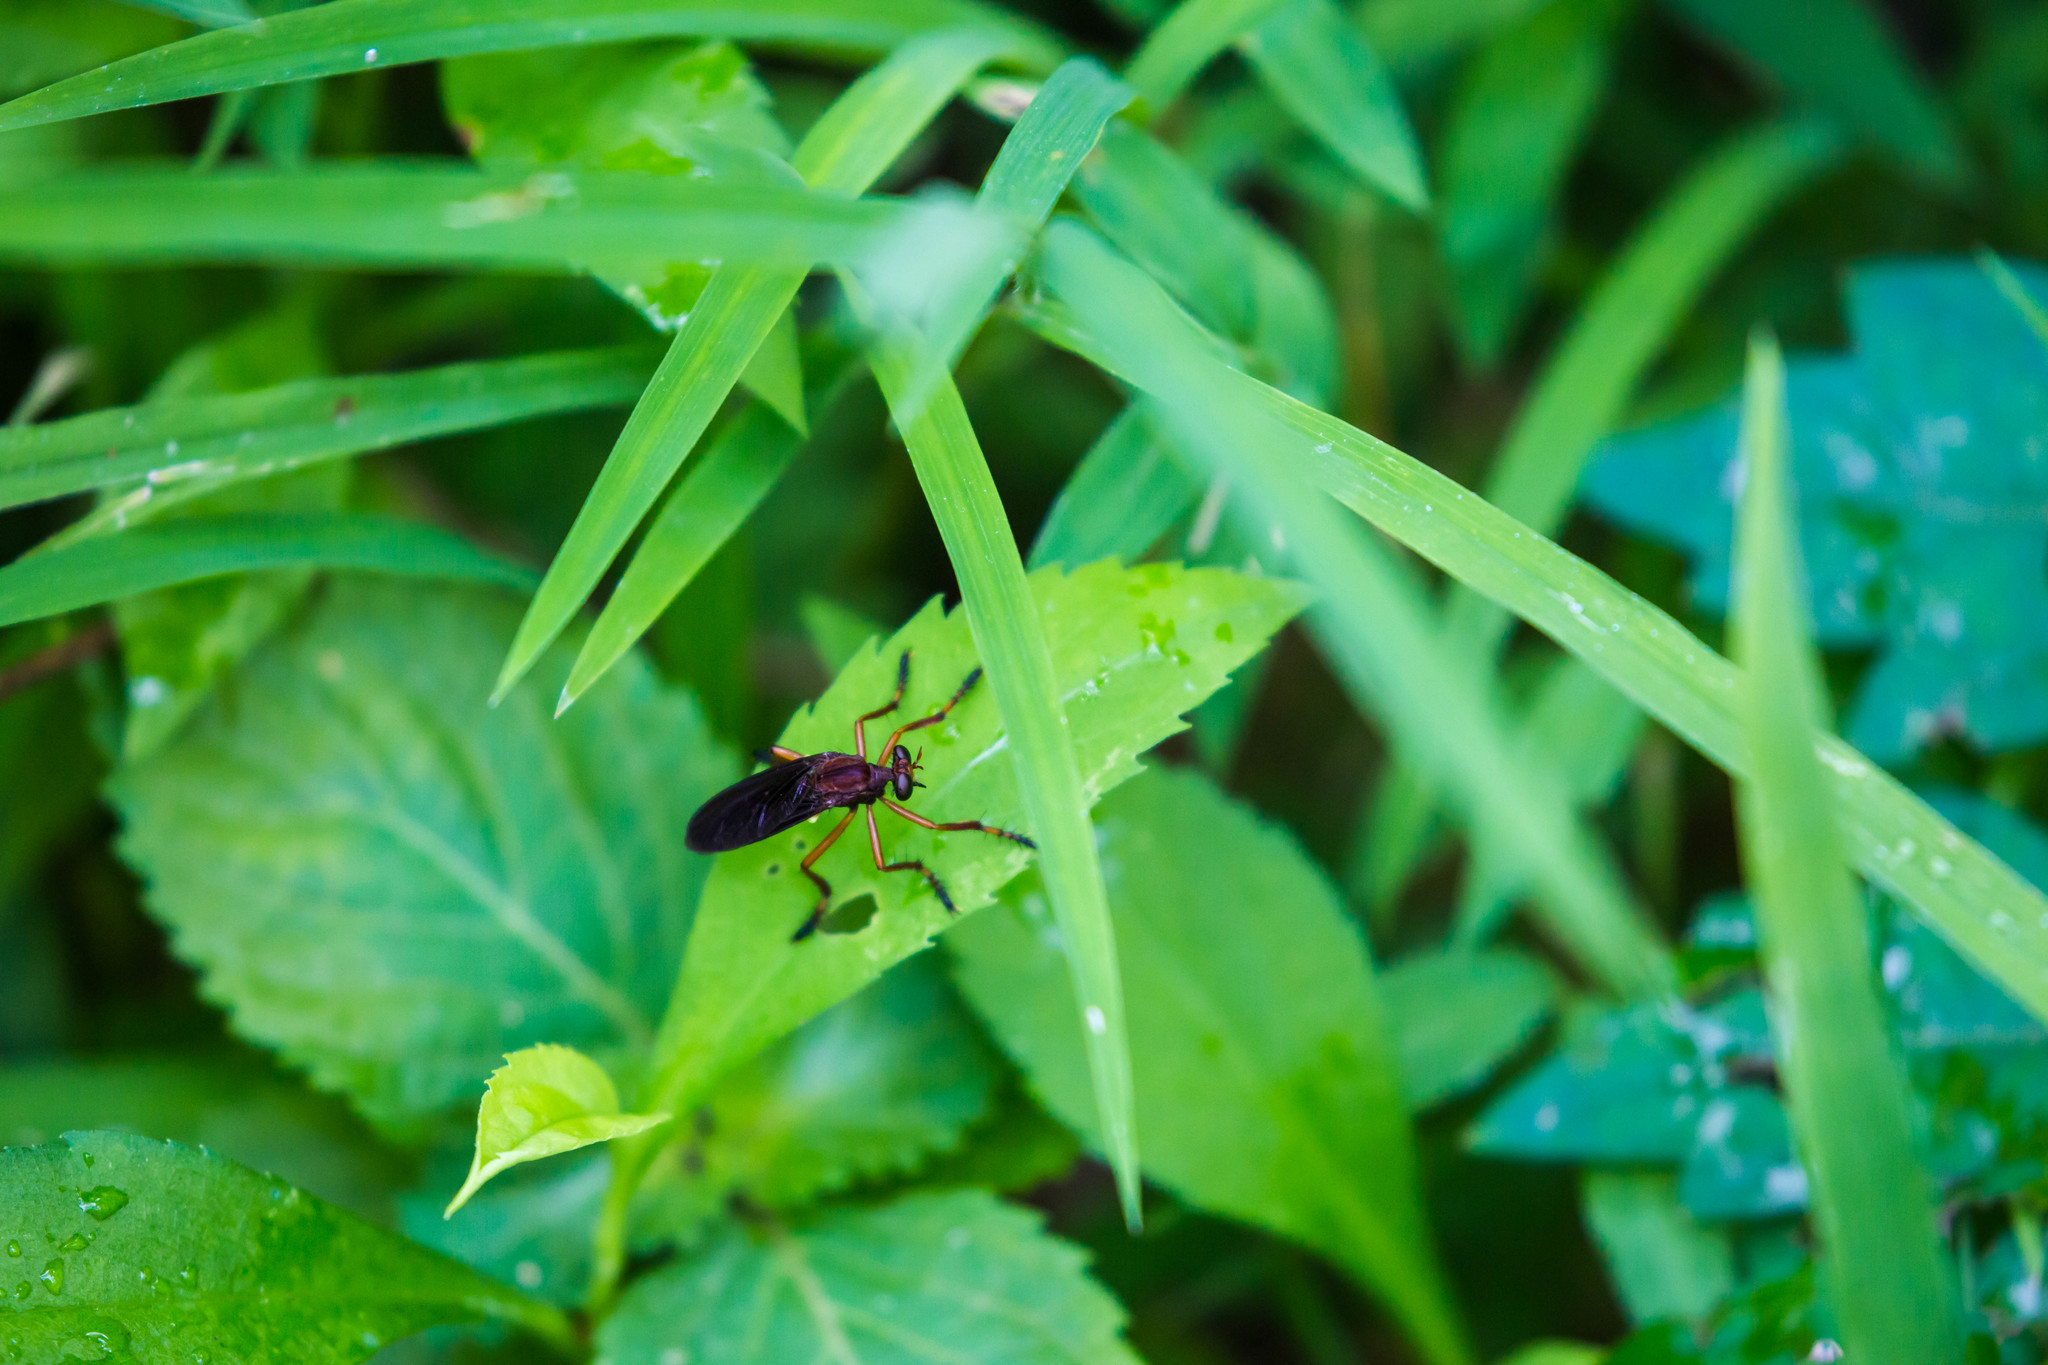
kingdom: Animalia
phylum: Arthropoda
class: Insecta
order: Diptera
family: Asilidae
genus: Diogmites
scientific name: Diogmites platypterus
